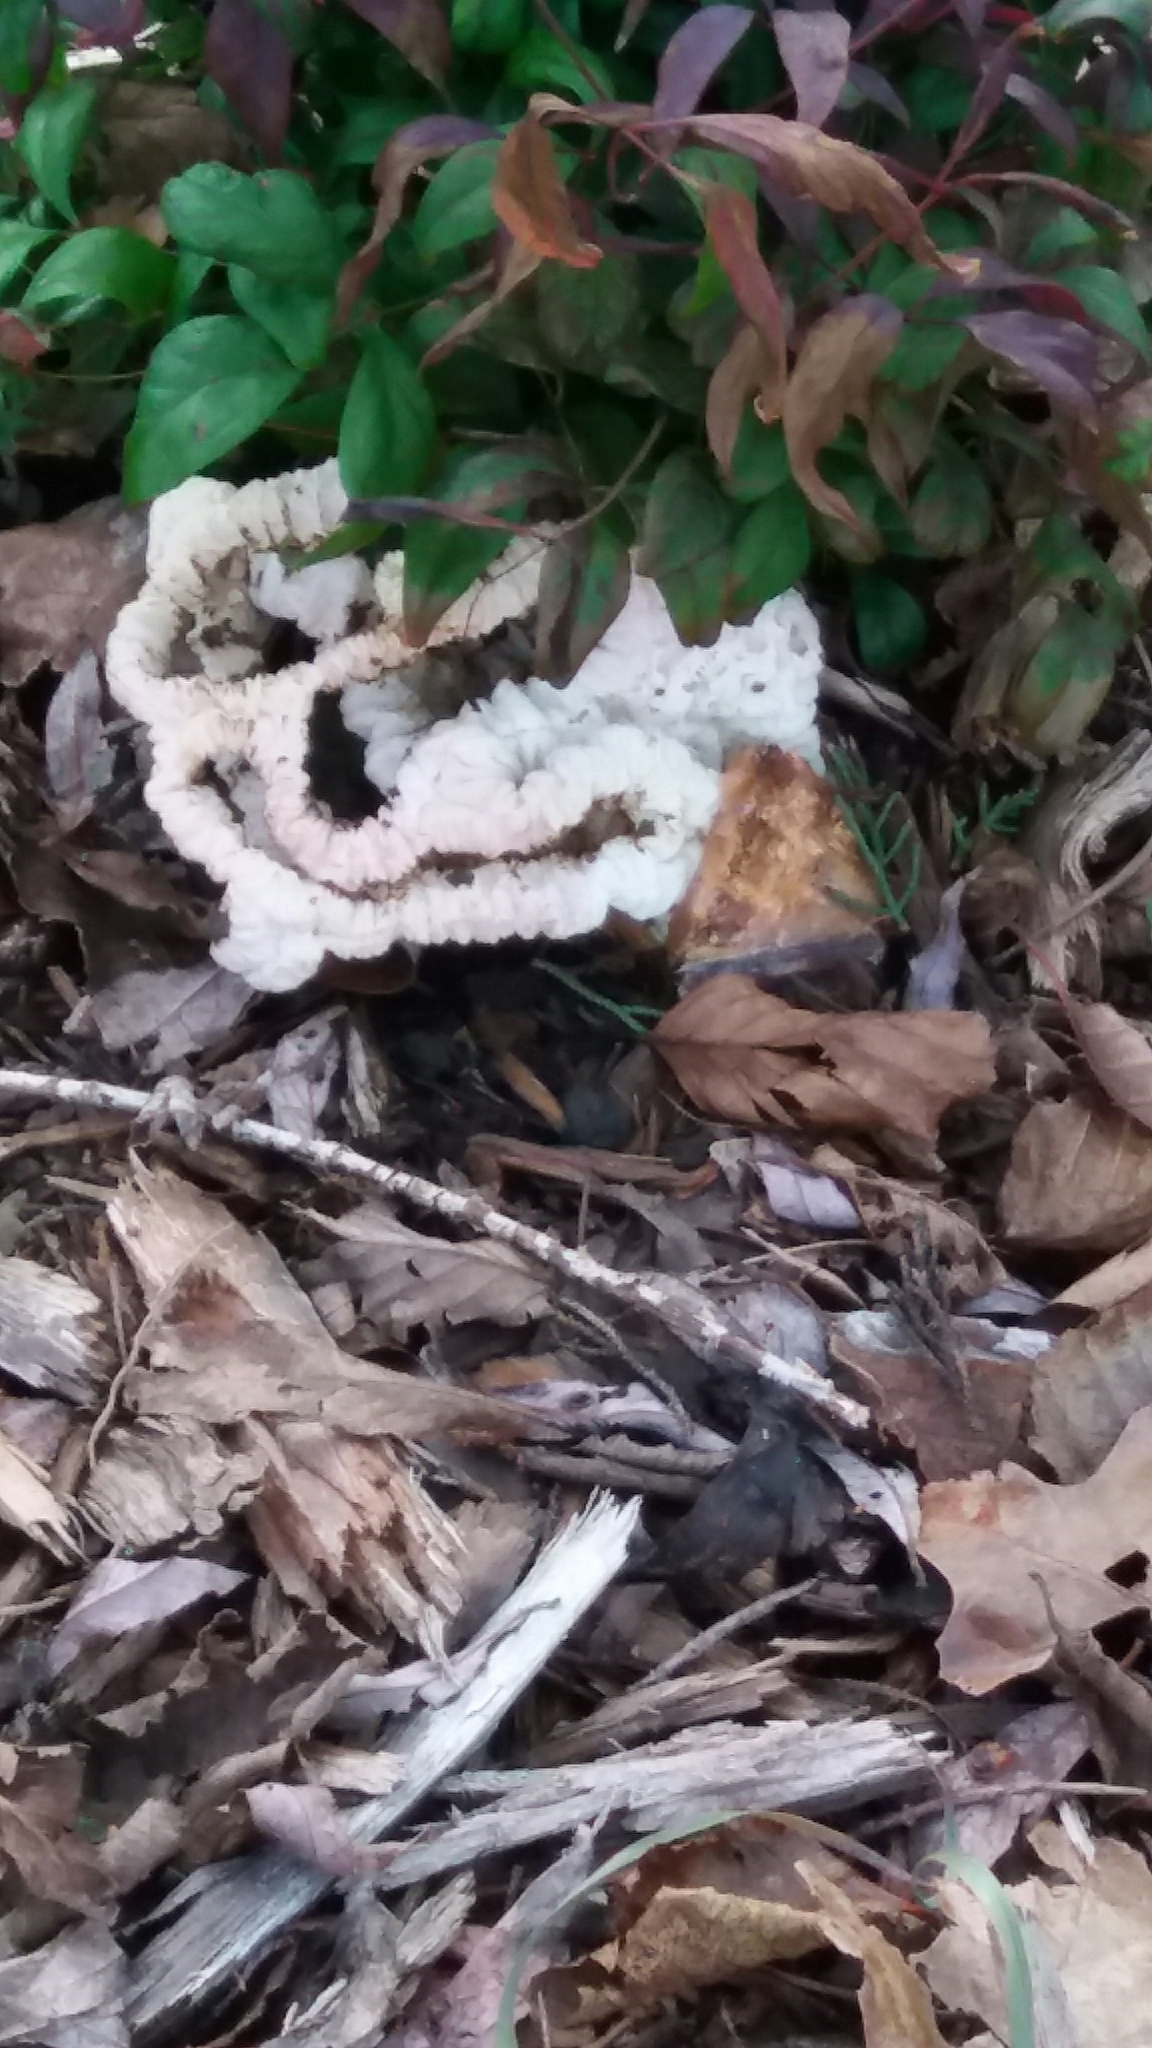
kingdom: Fungi
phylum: Basidiomycota
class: Agaricomycetes
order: Phallales
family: Phallaceae
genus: Ileodictyon
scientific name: Ileodictyon cibarium
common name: Basket fungus
